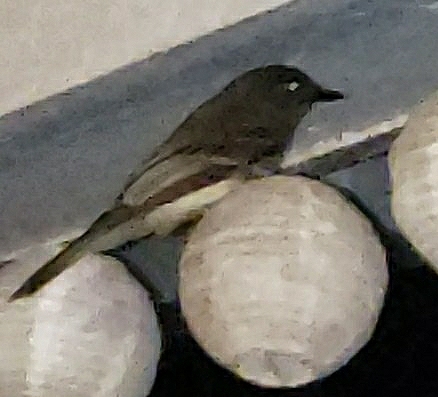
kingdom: Animalia
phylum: Chordata
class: Aves
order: Passeriformes
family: Tyrannidae
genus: Sayornis
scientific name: Sayornis phoebe
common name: Eastern phoebe
